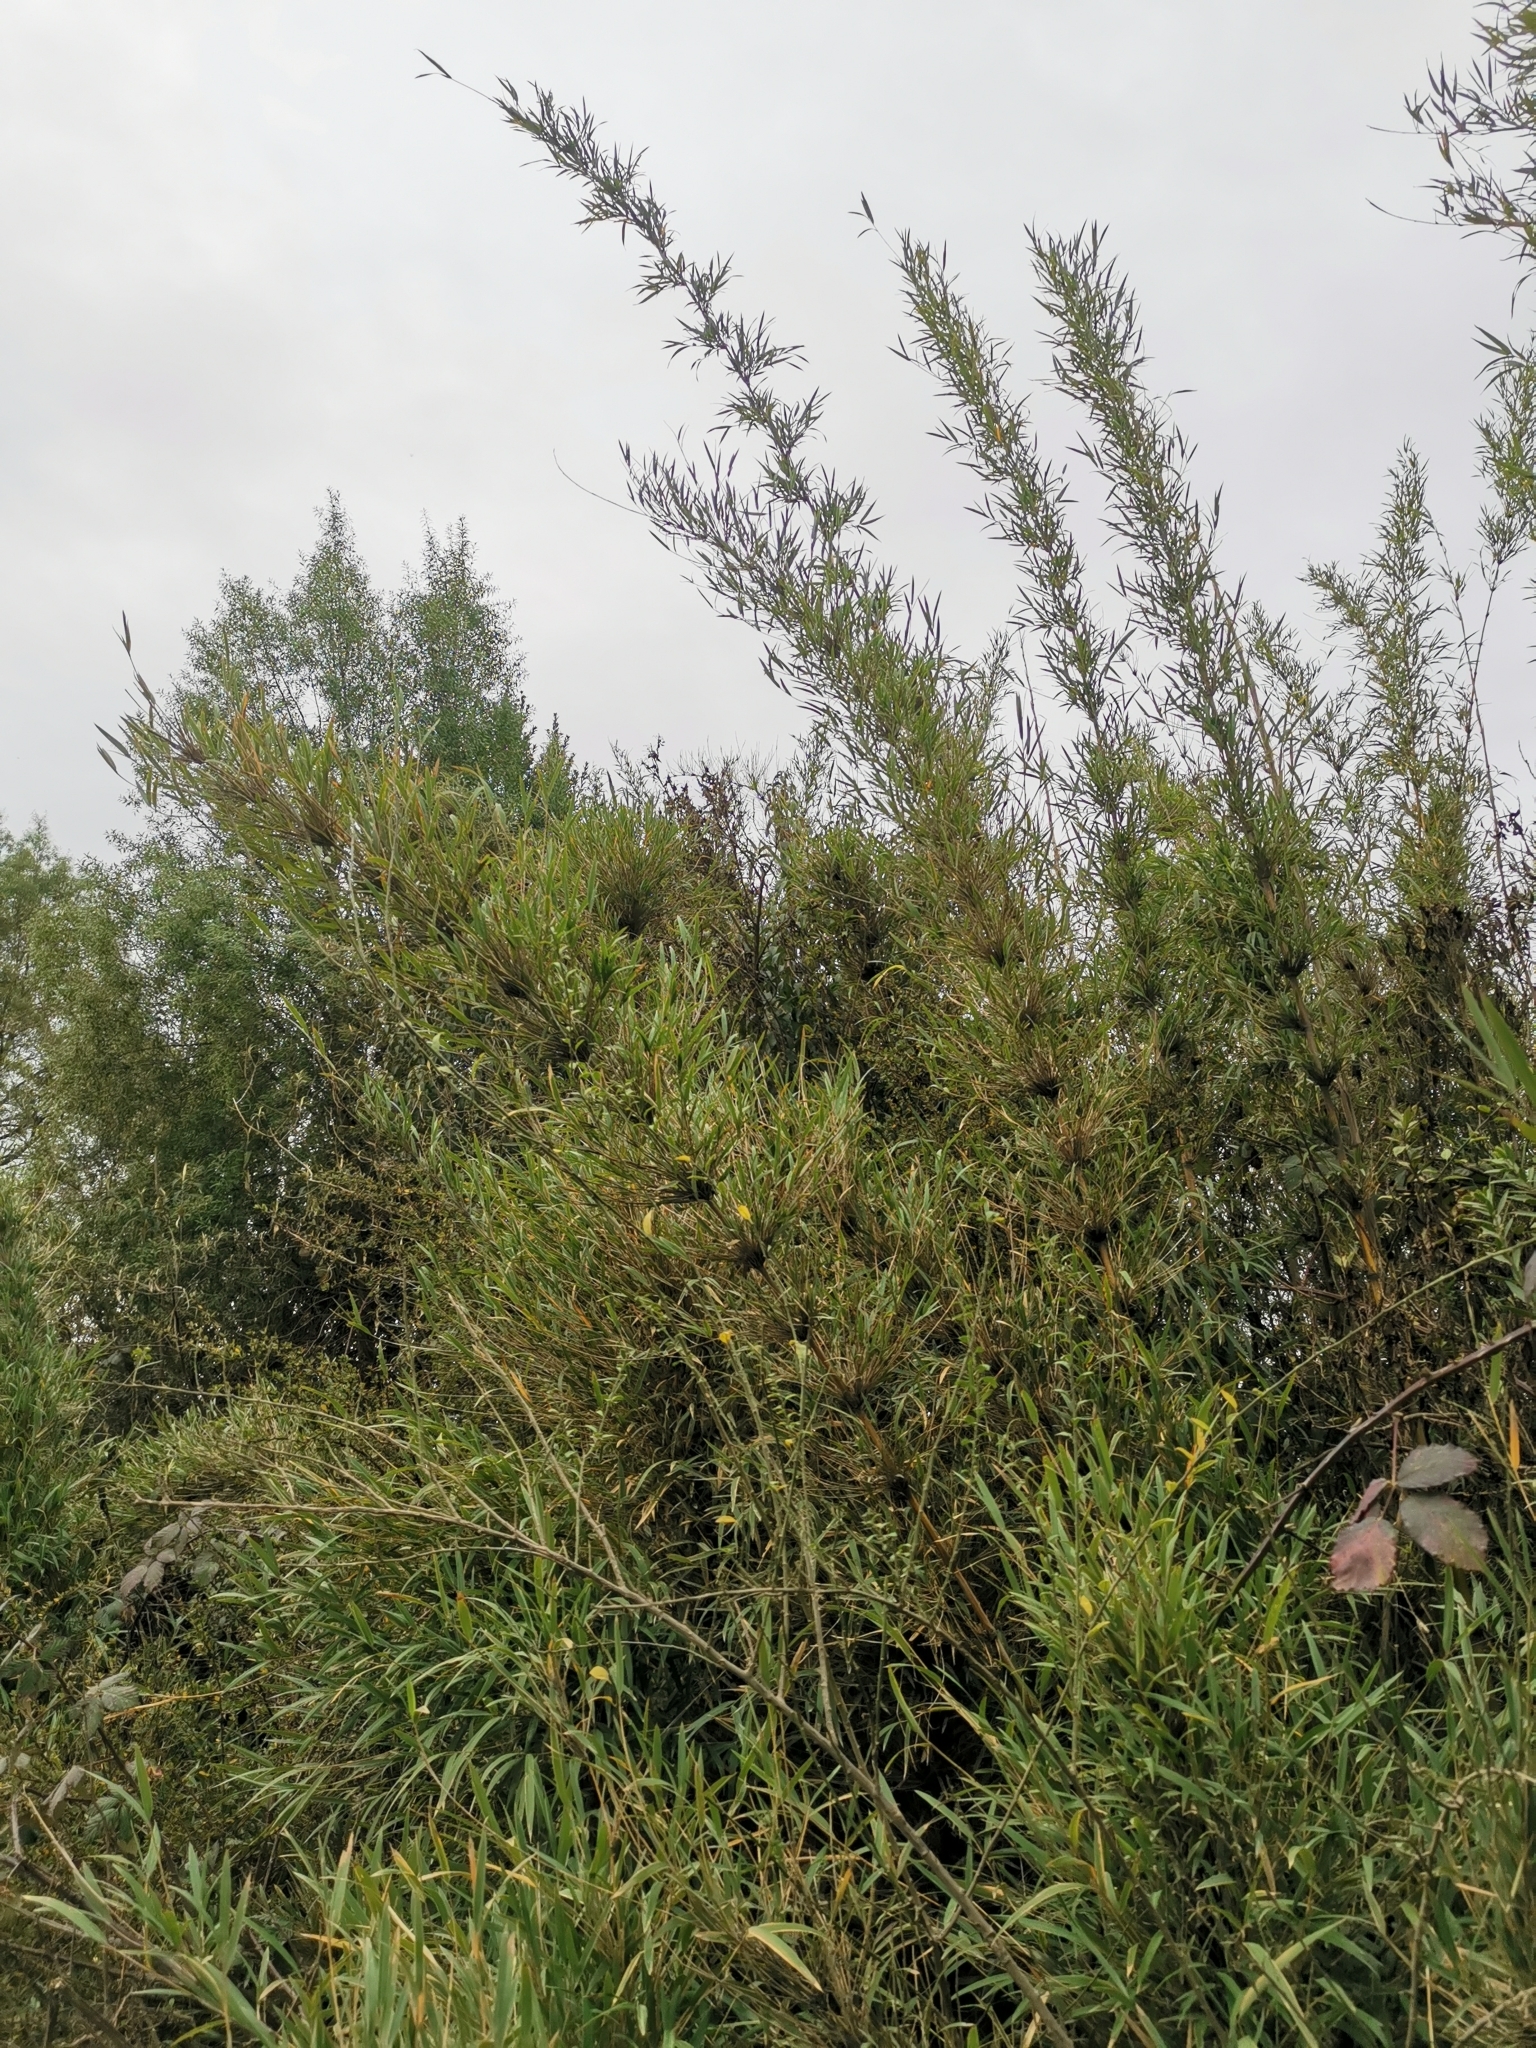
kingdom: Plantae
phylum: Tracheophyta
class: Liliopsida
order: Poales
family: Poaceae
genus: Chusquea
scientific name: Chusquea culeou
